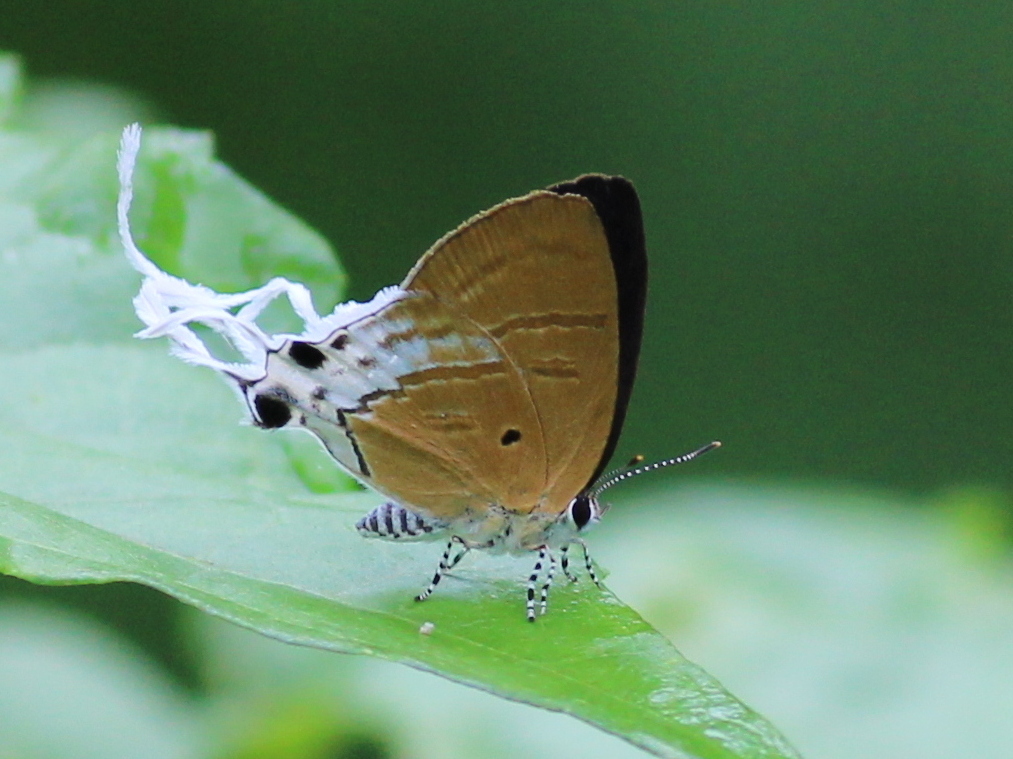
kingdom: Animalia
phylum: Arthropoda
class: Insecta
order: Lepidoptera
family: Lycaenidae
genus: Zeltus
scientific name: Zeltus amasa
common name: Fluffy tit
